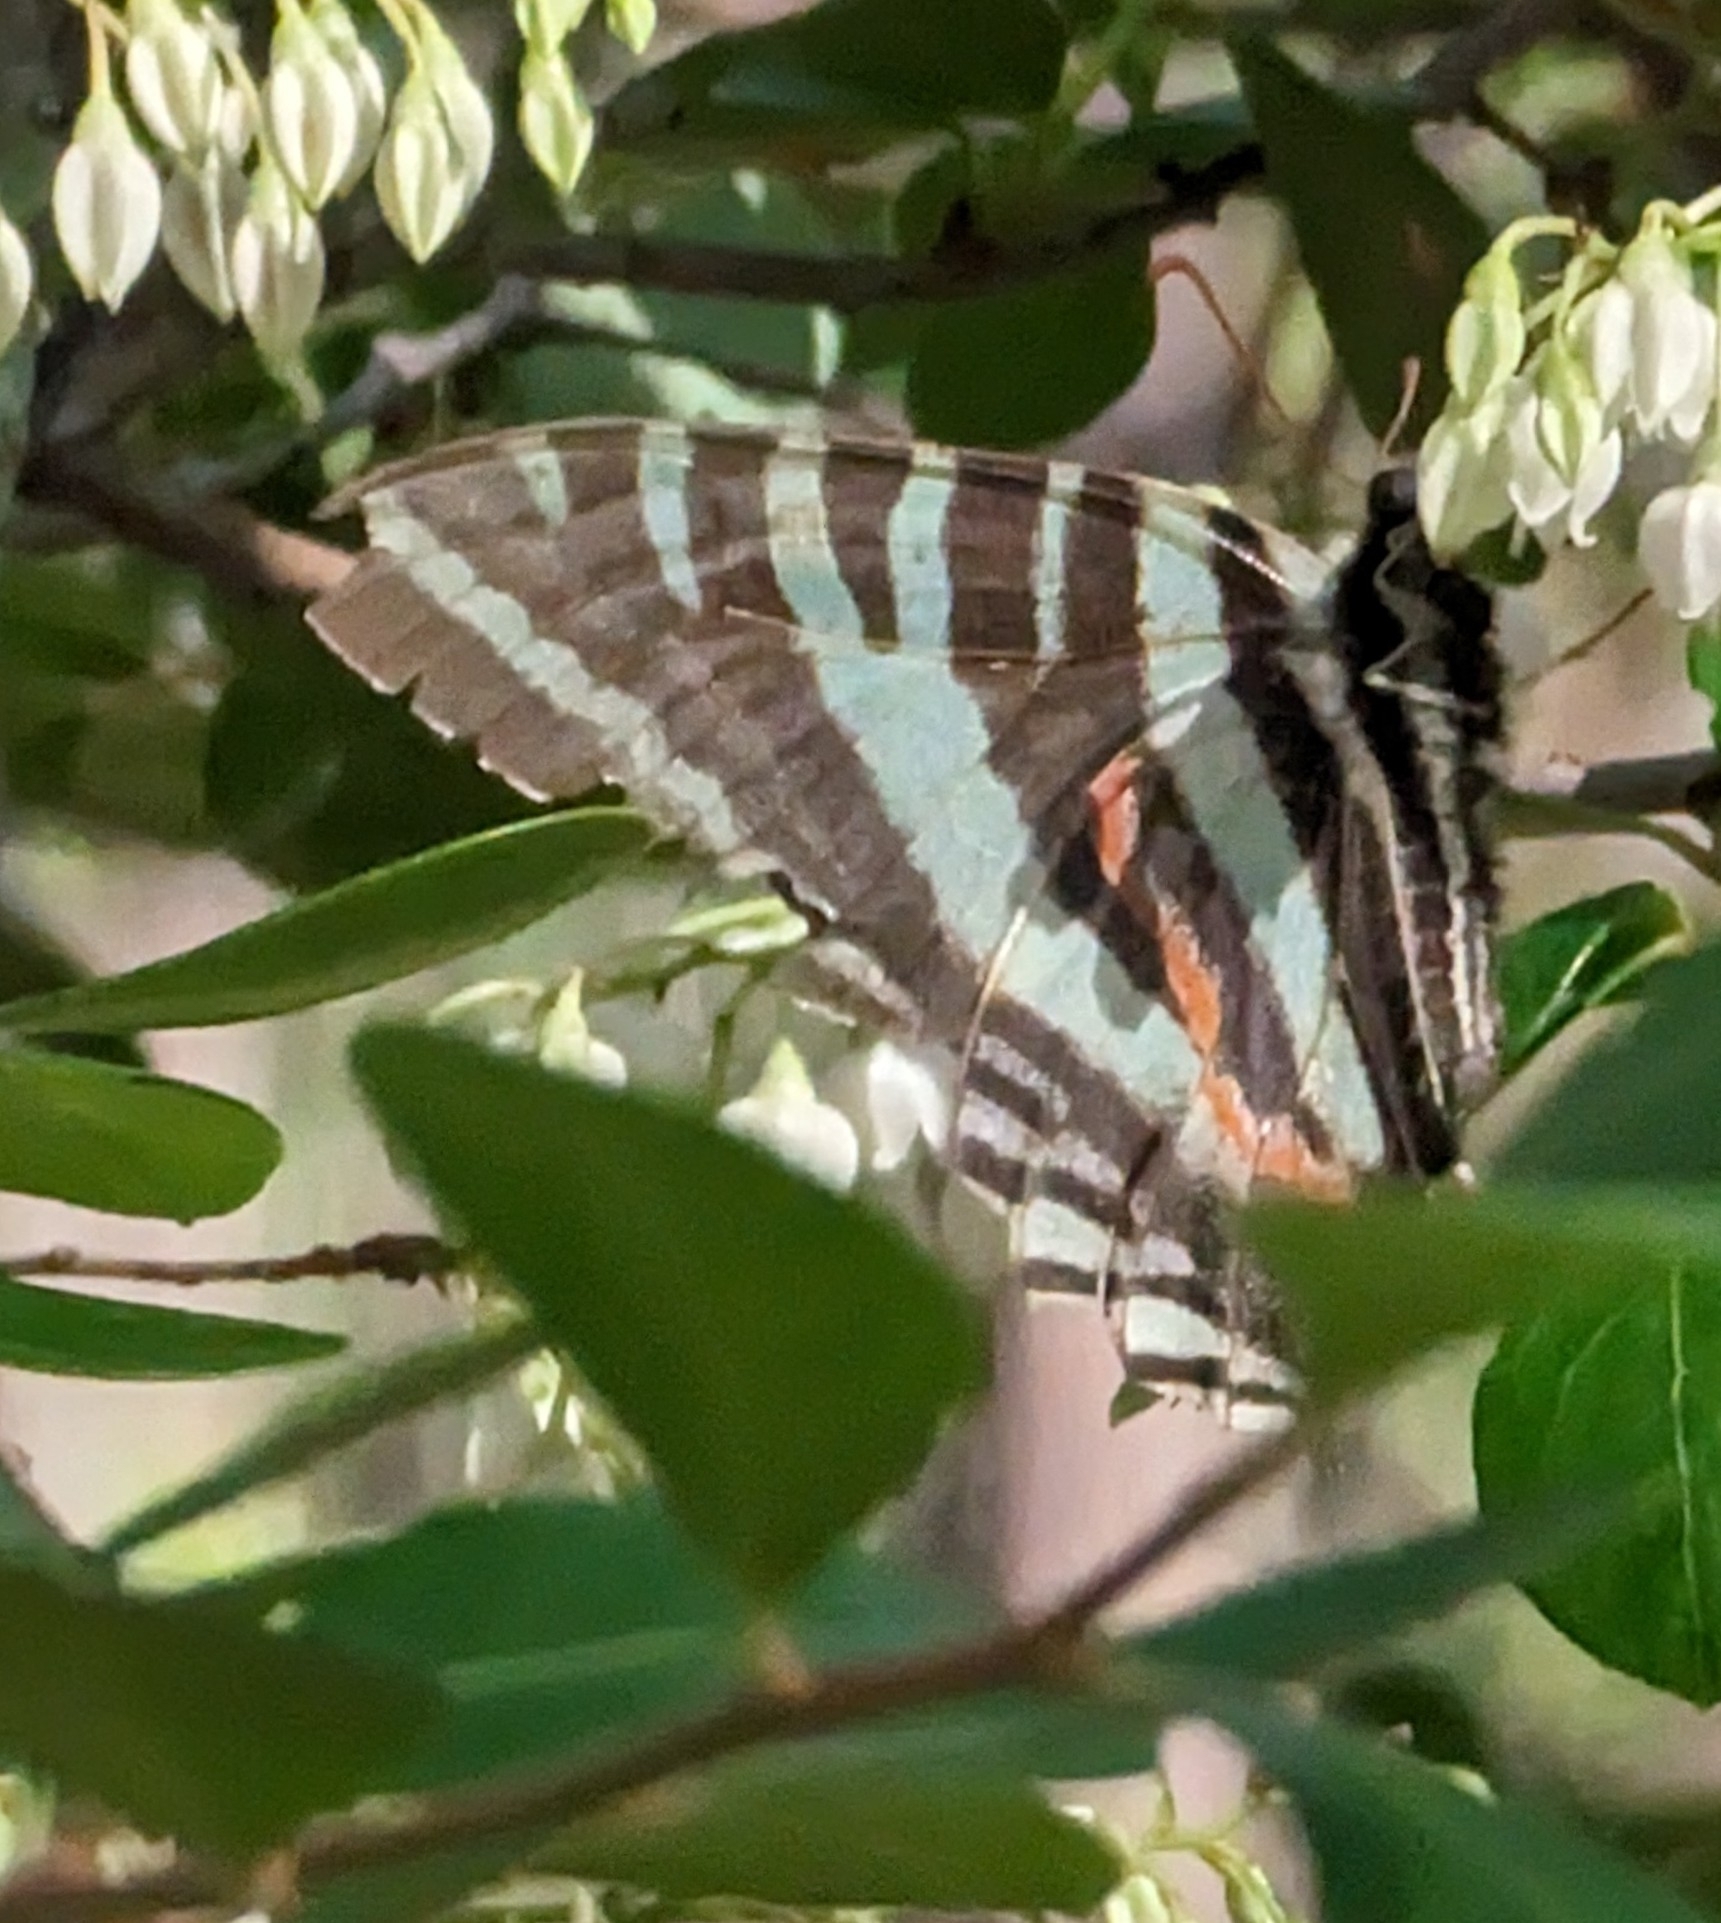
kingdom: Animalia
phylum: Arthropoda
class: Insecta
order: Lepidoptera
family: Papilionidae
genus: Protographium
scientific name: Protographium marcellus
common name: Zebra swallowtail
